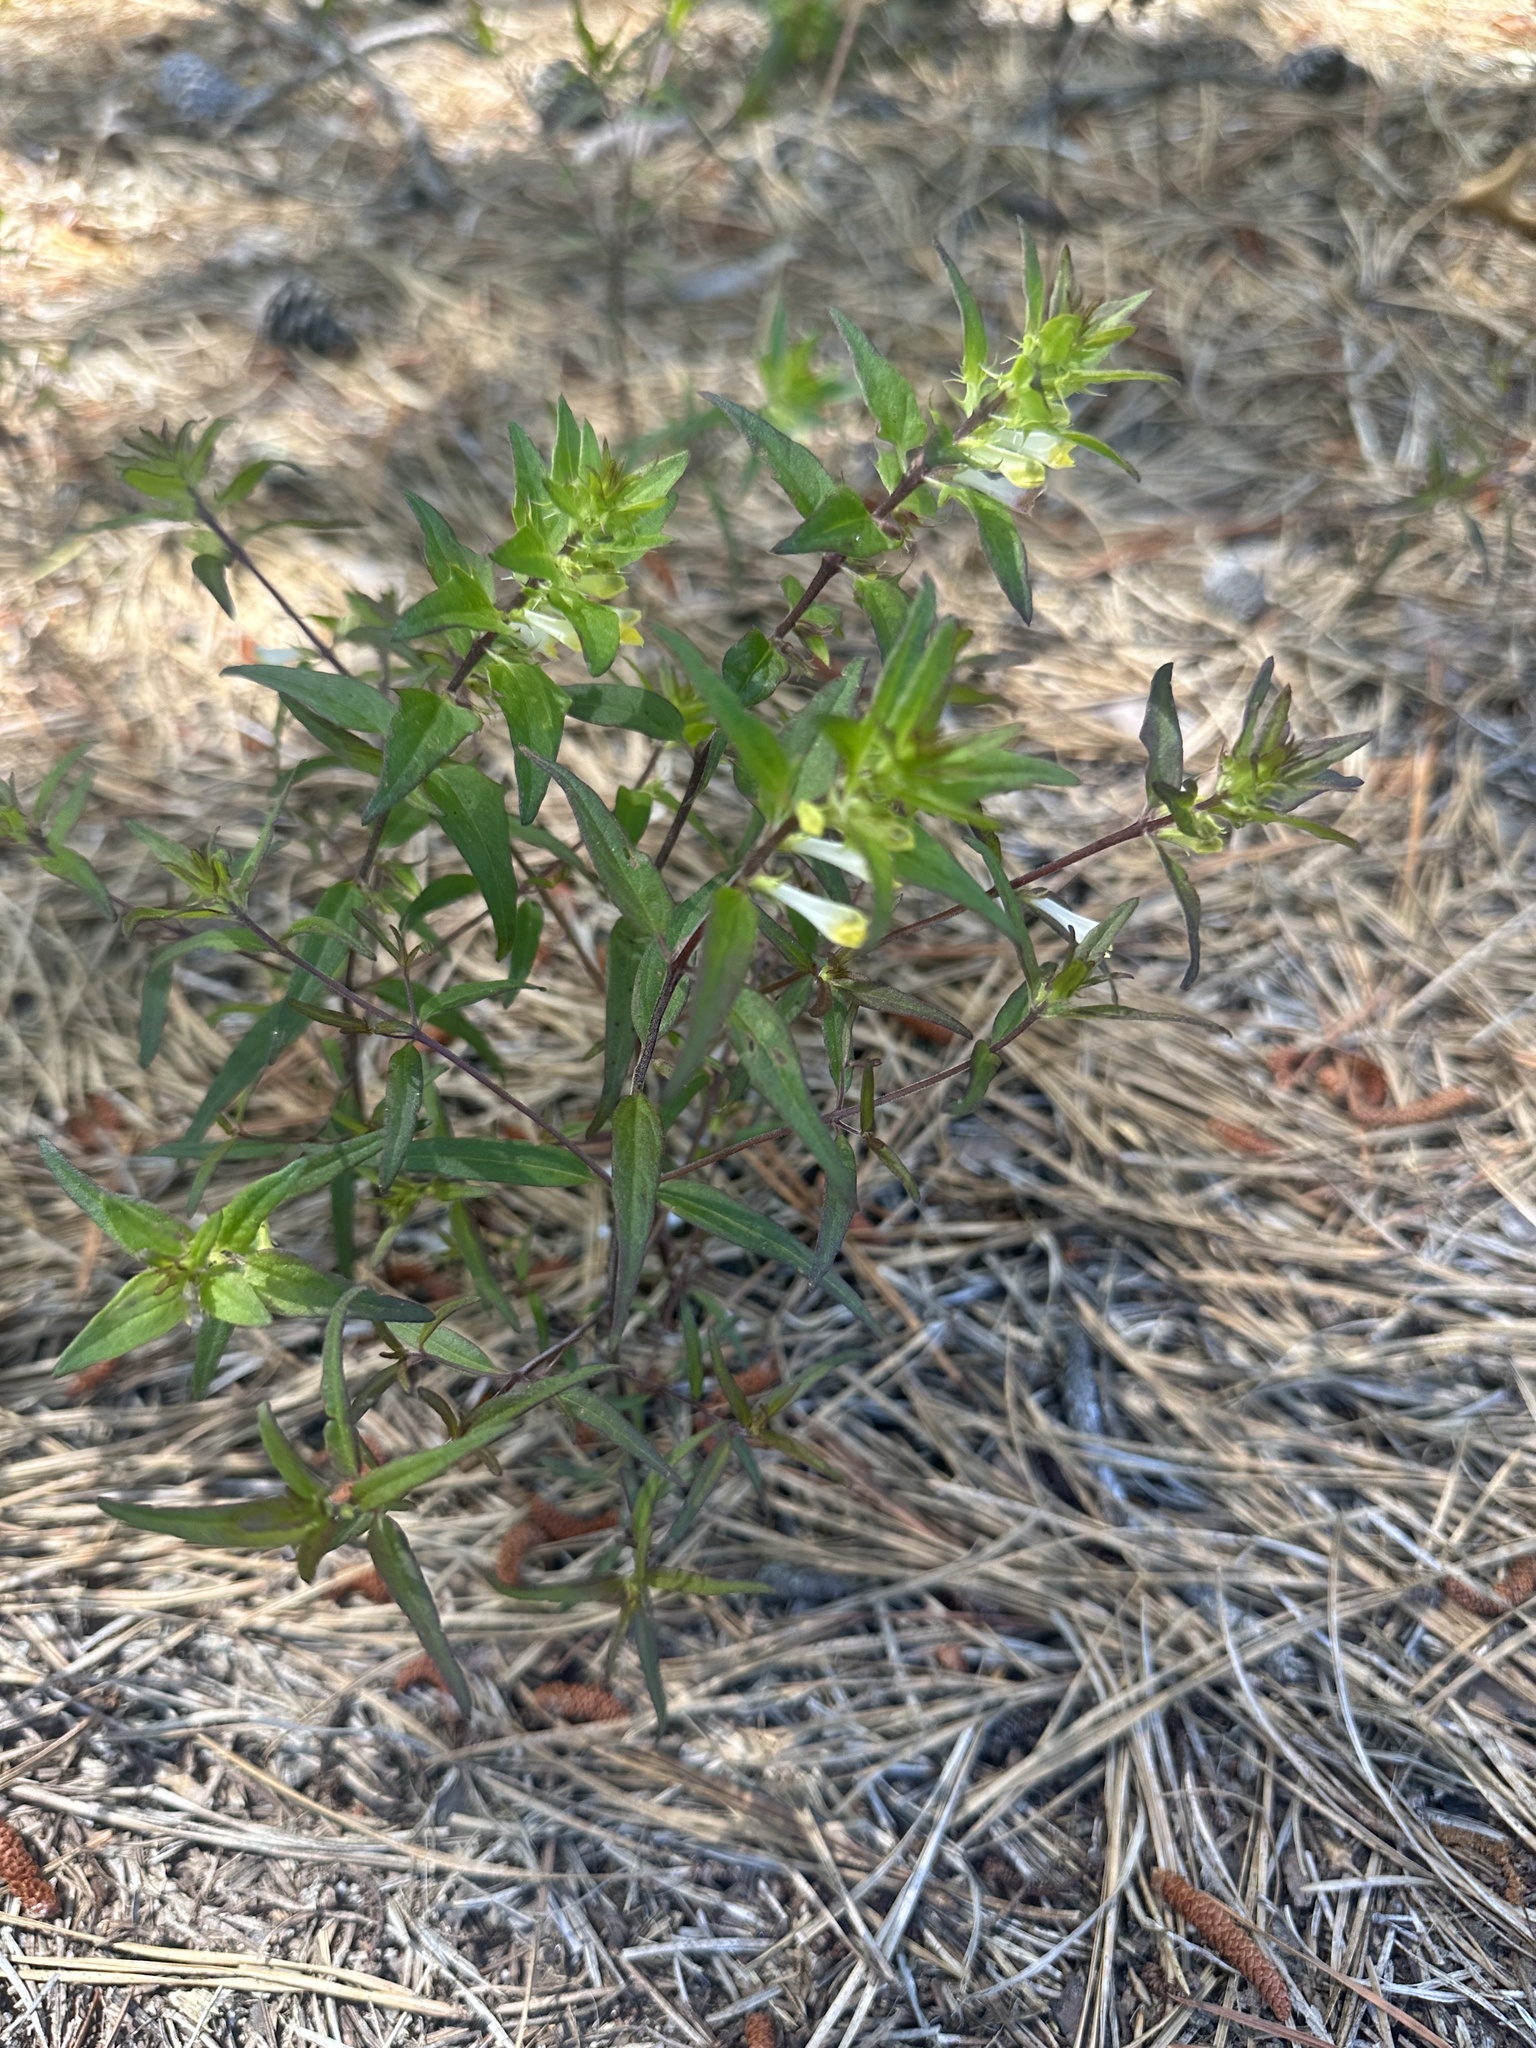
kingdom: Plantae
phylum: Tracheophyta
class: Magnoliopsida
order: Lamiales
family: Orobanchaceae
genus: Melampyrum
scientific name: Melampyrum lineare
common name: American cow-wheat
